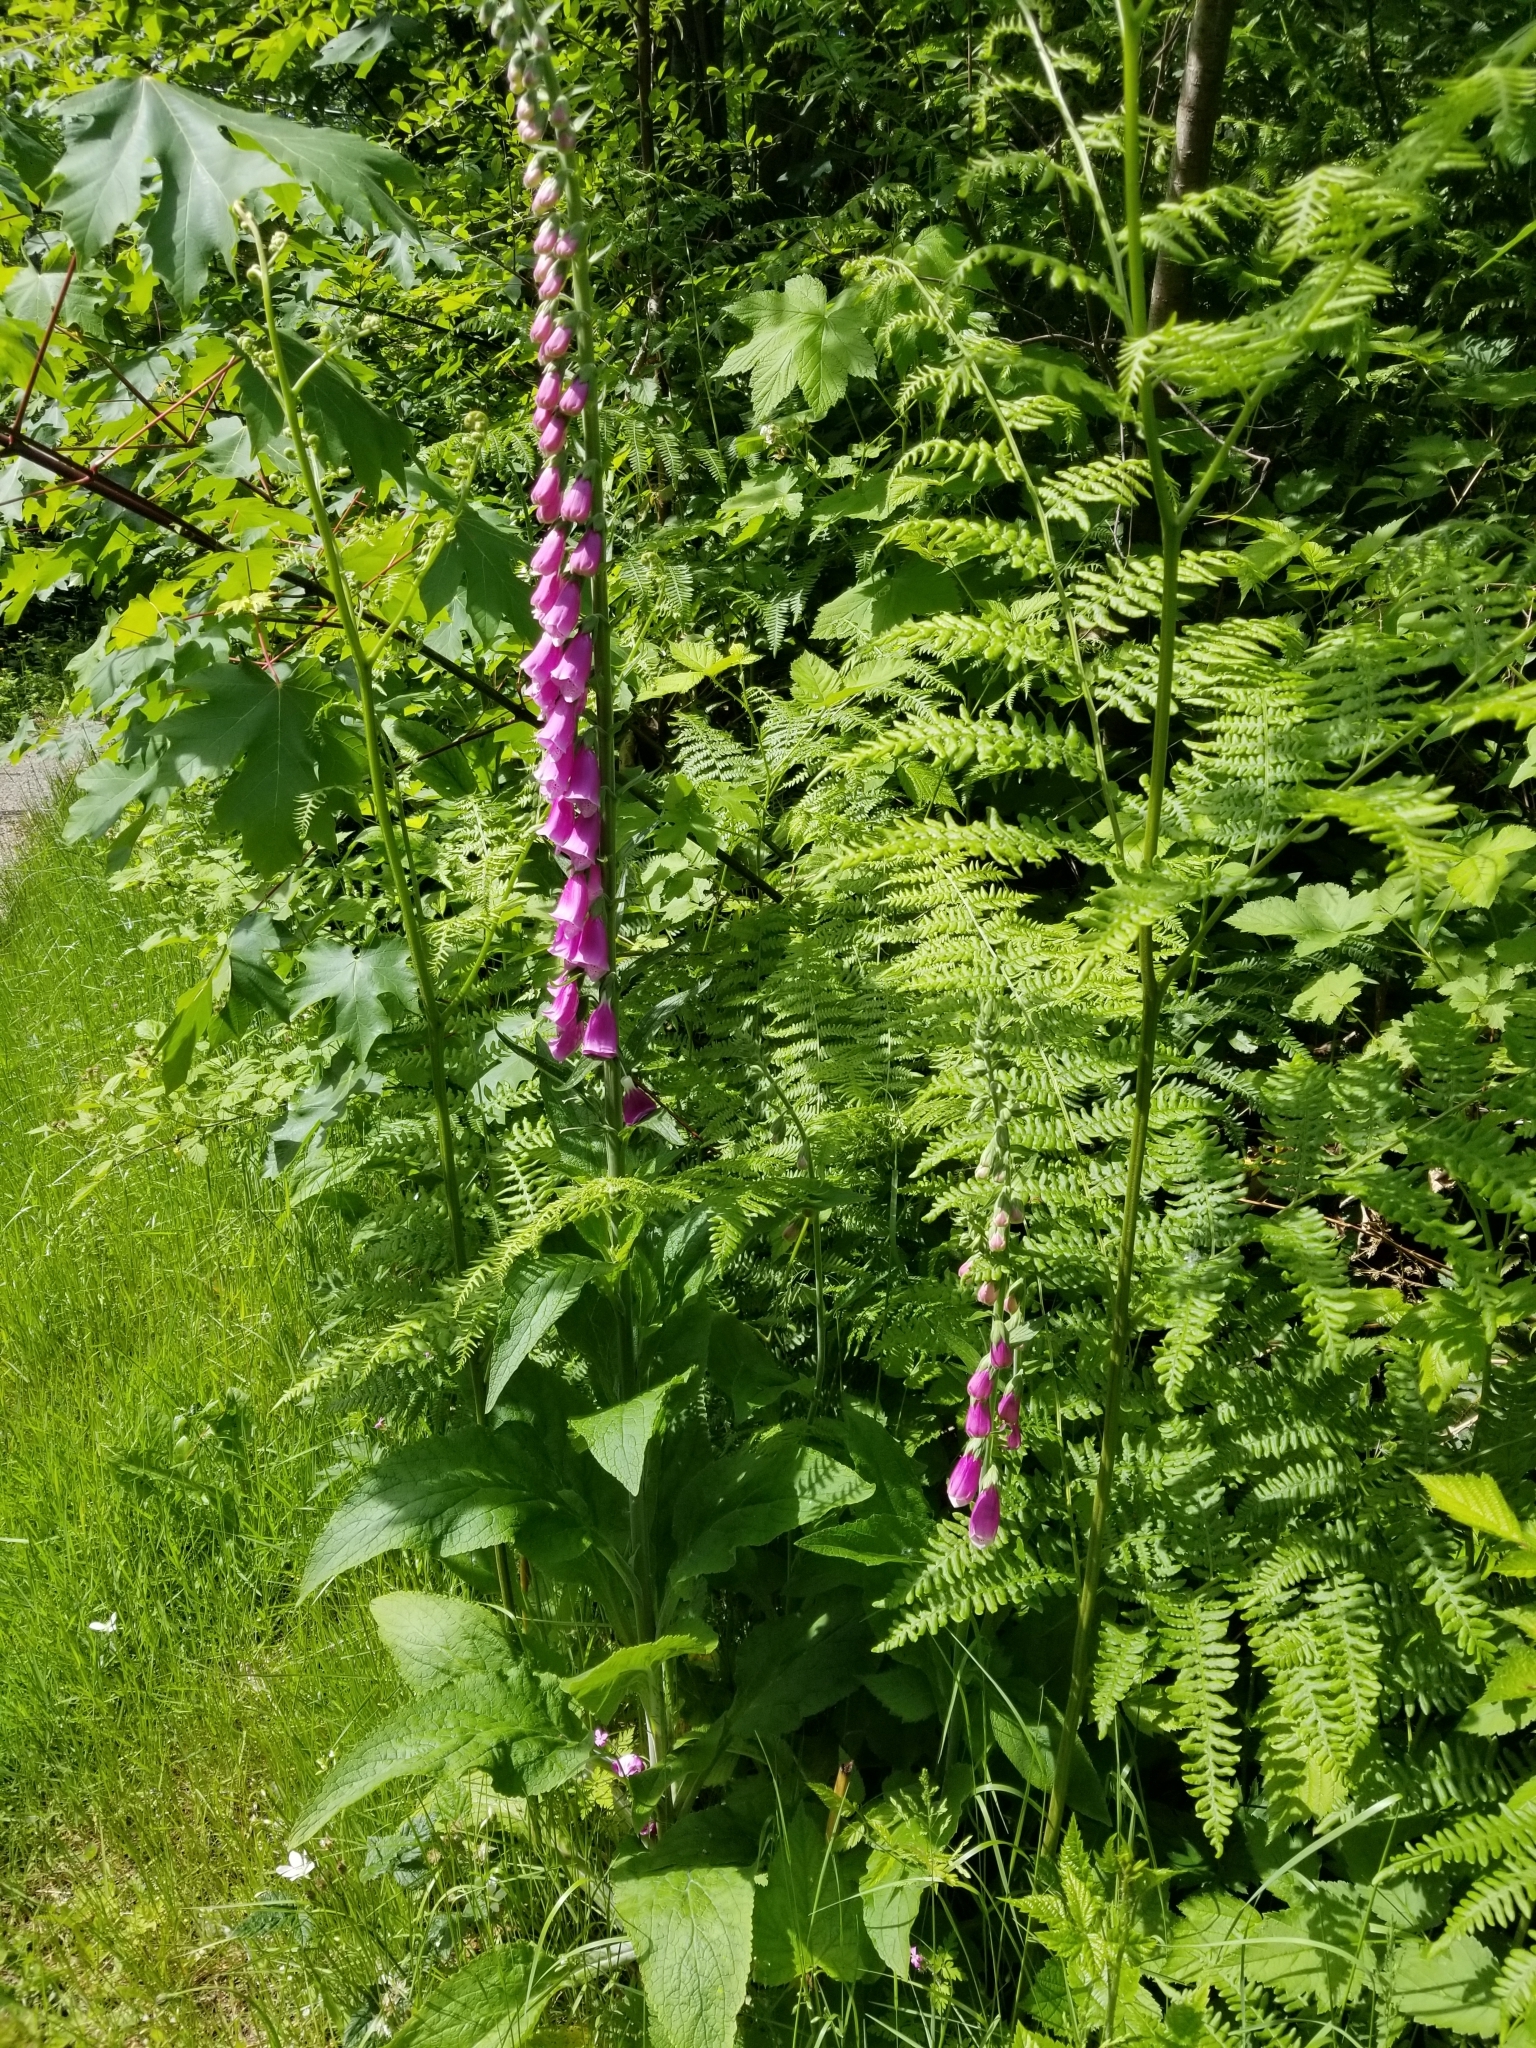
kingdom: Plantae
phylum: Tracheophyta
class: Magnoliopsida
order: Lamiales
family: Plantaginaceae
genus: Digitalis
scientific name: Digitalis purpurea
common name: Foxglove
